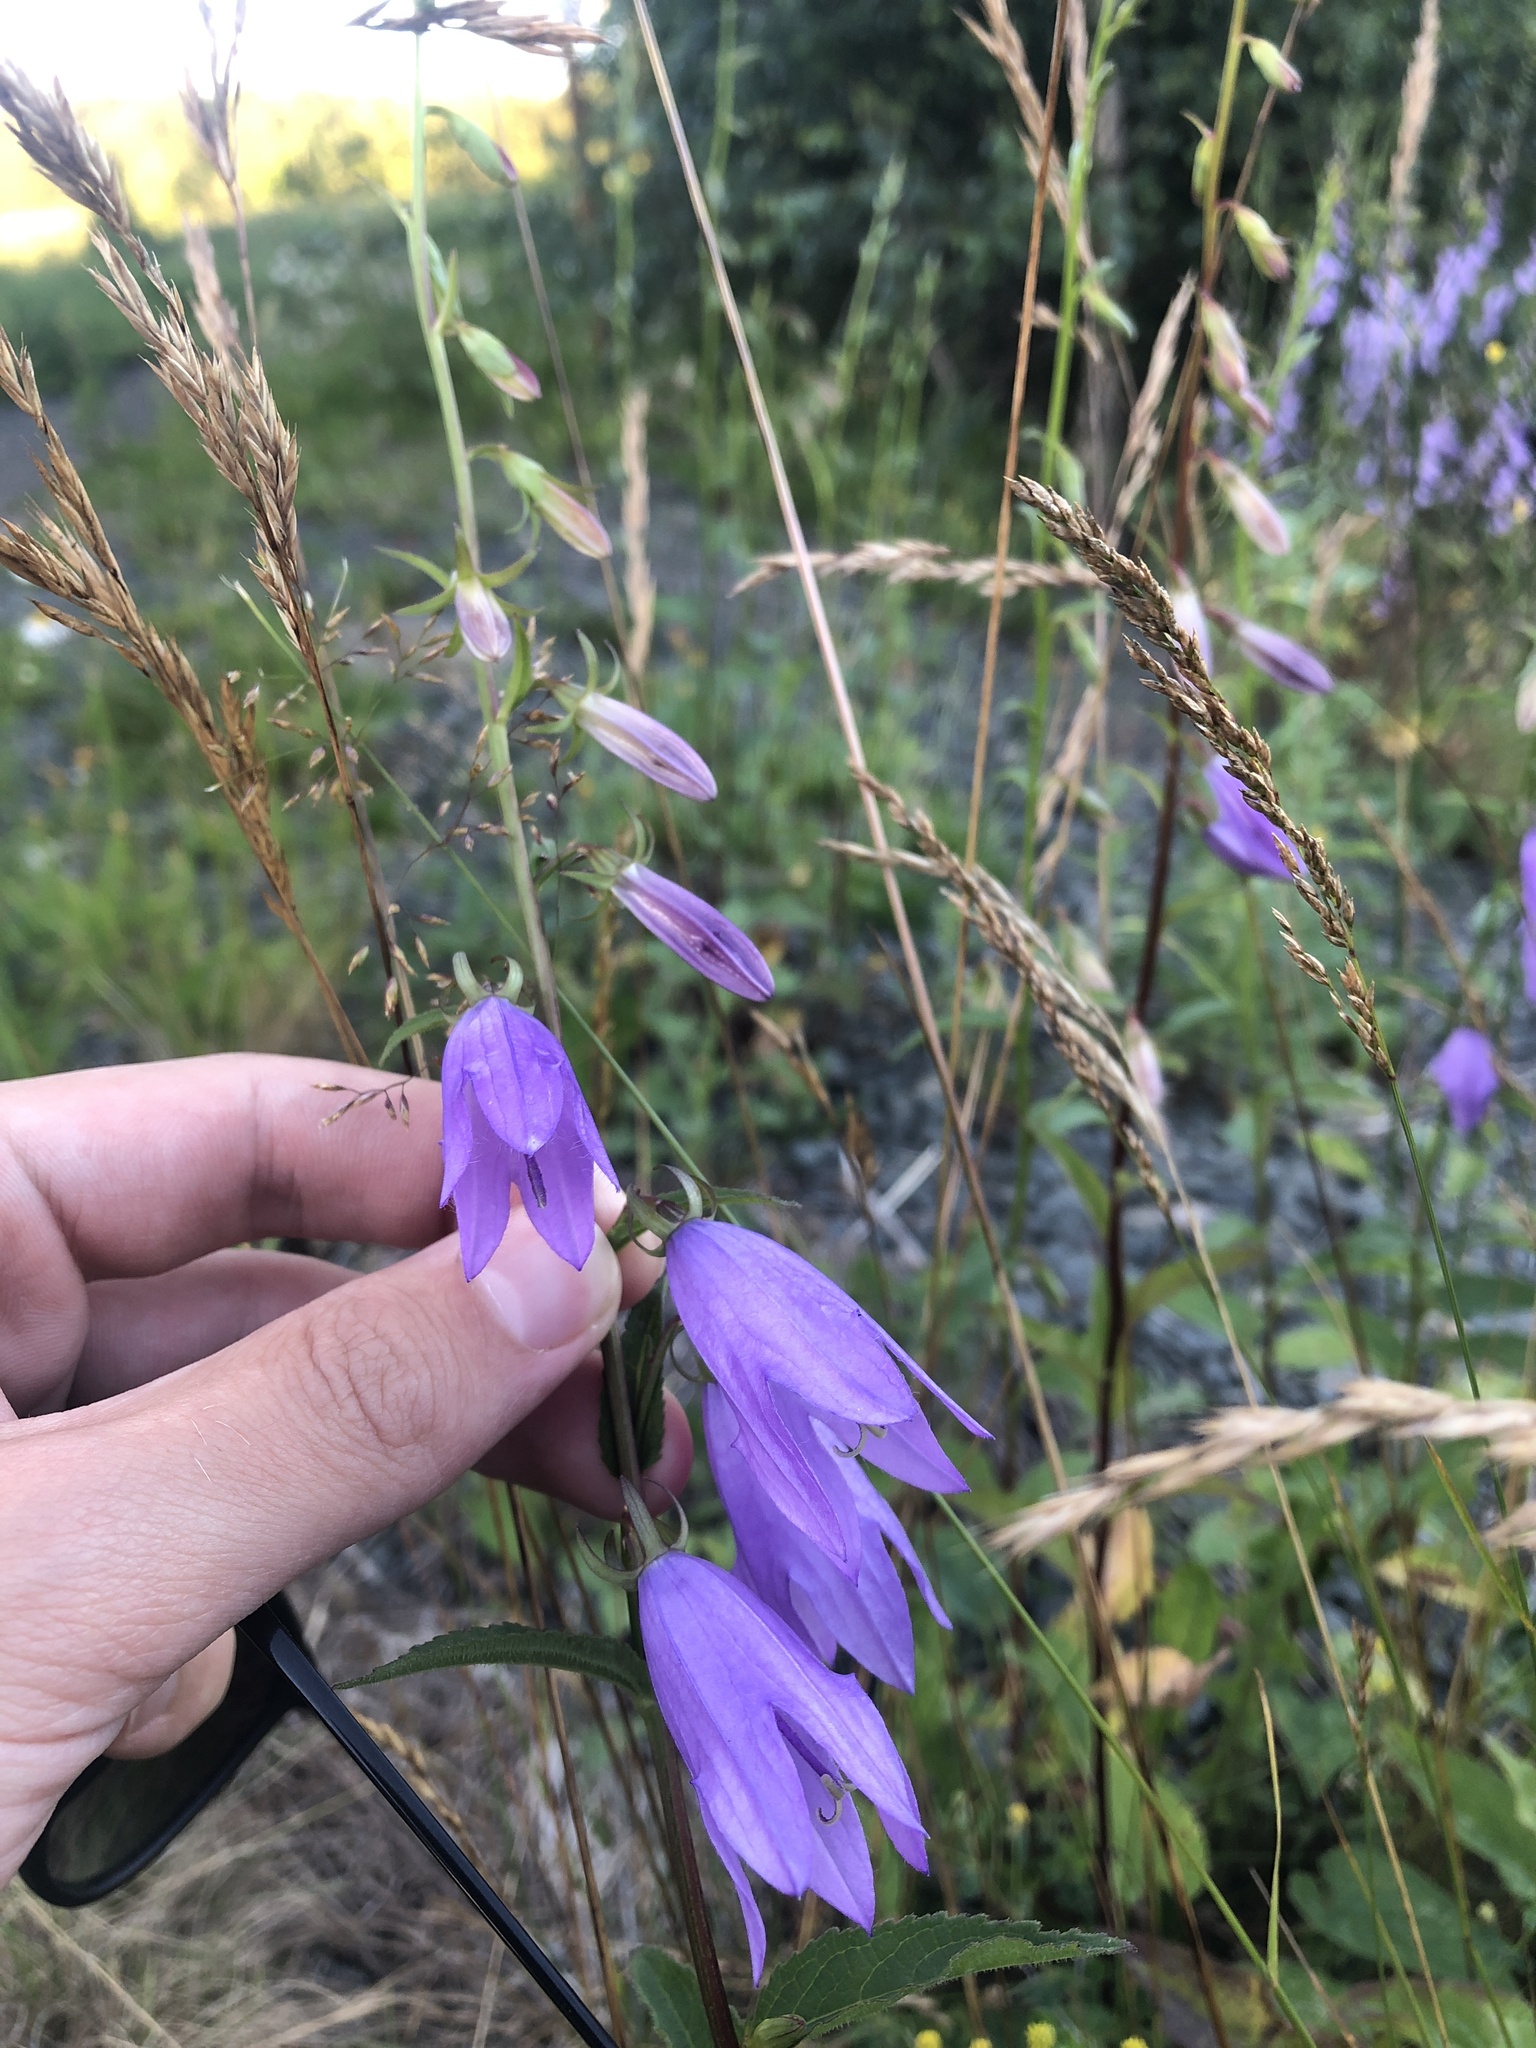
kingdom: Plantae
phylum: Tracheophyta
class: Magnoliopsida
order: Asterales
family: Campanulaceae
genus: Campanula
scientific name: Campanula rapunculoides
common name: Creeping bellflower
